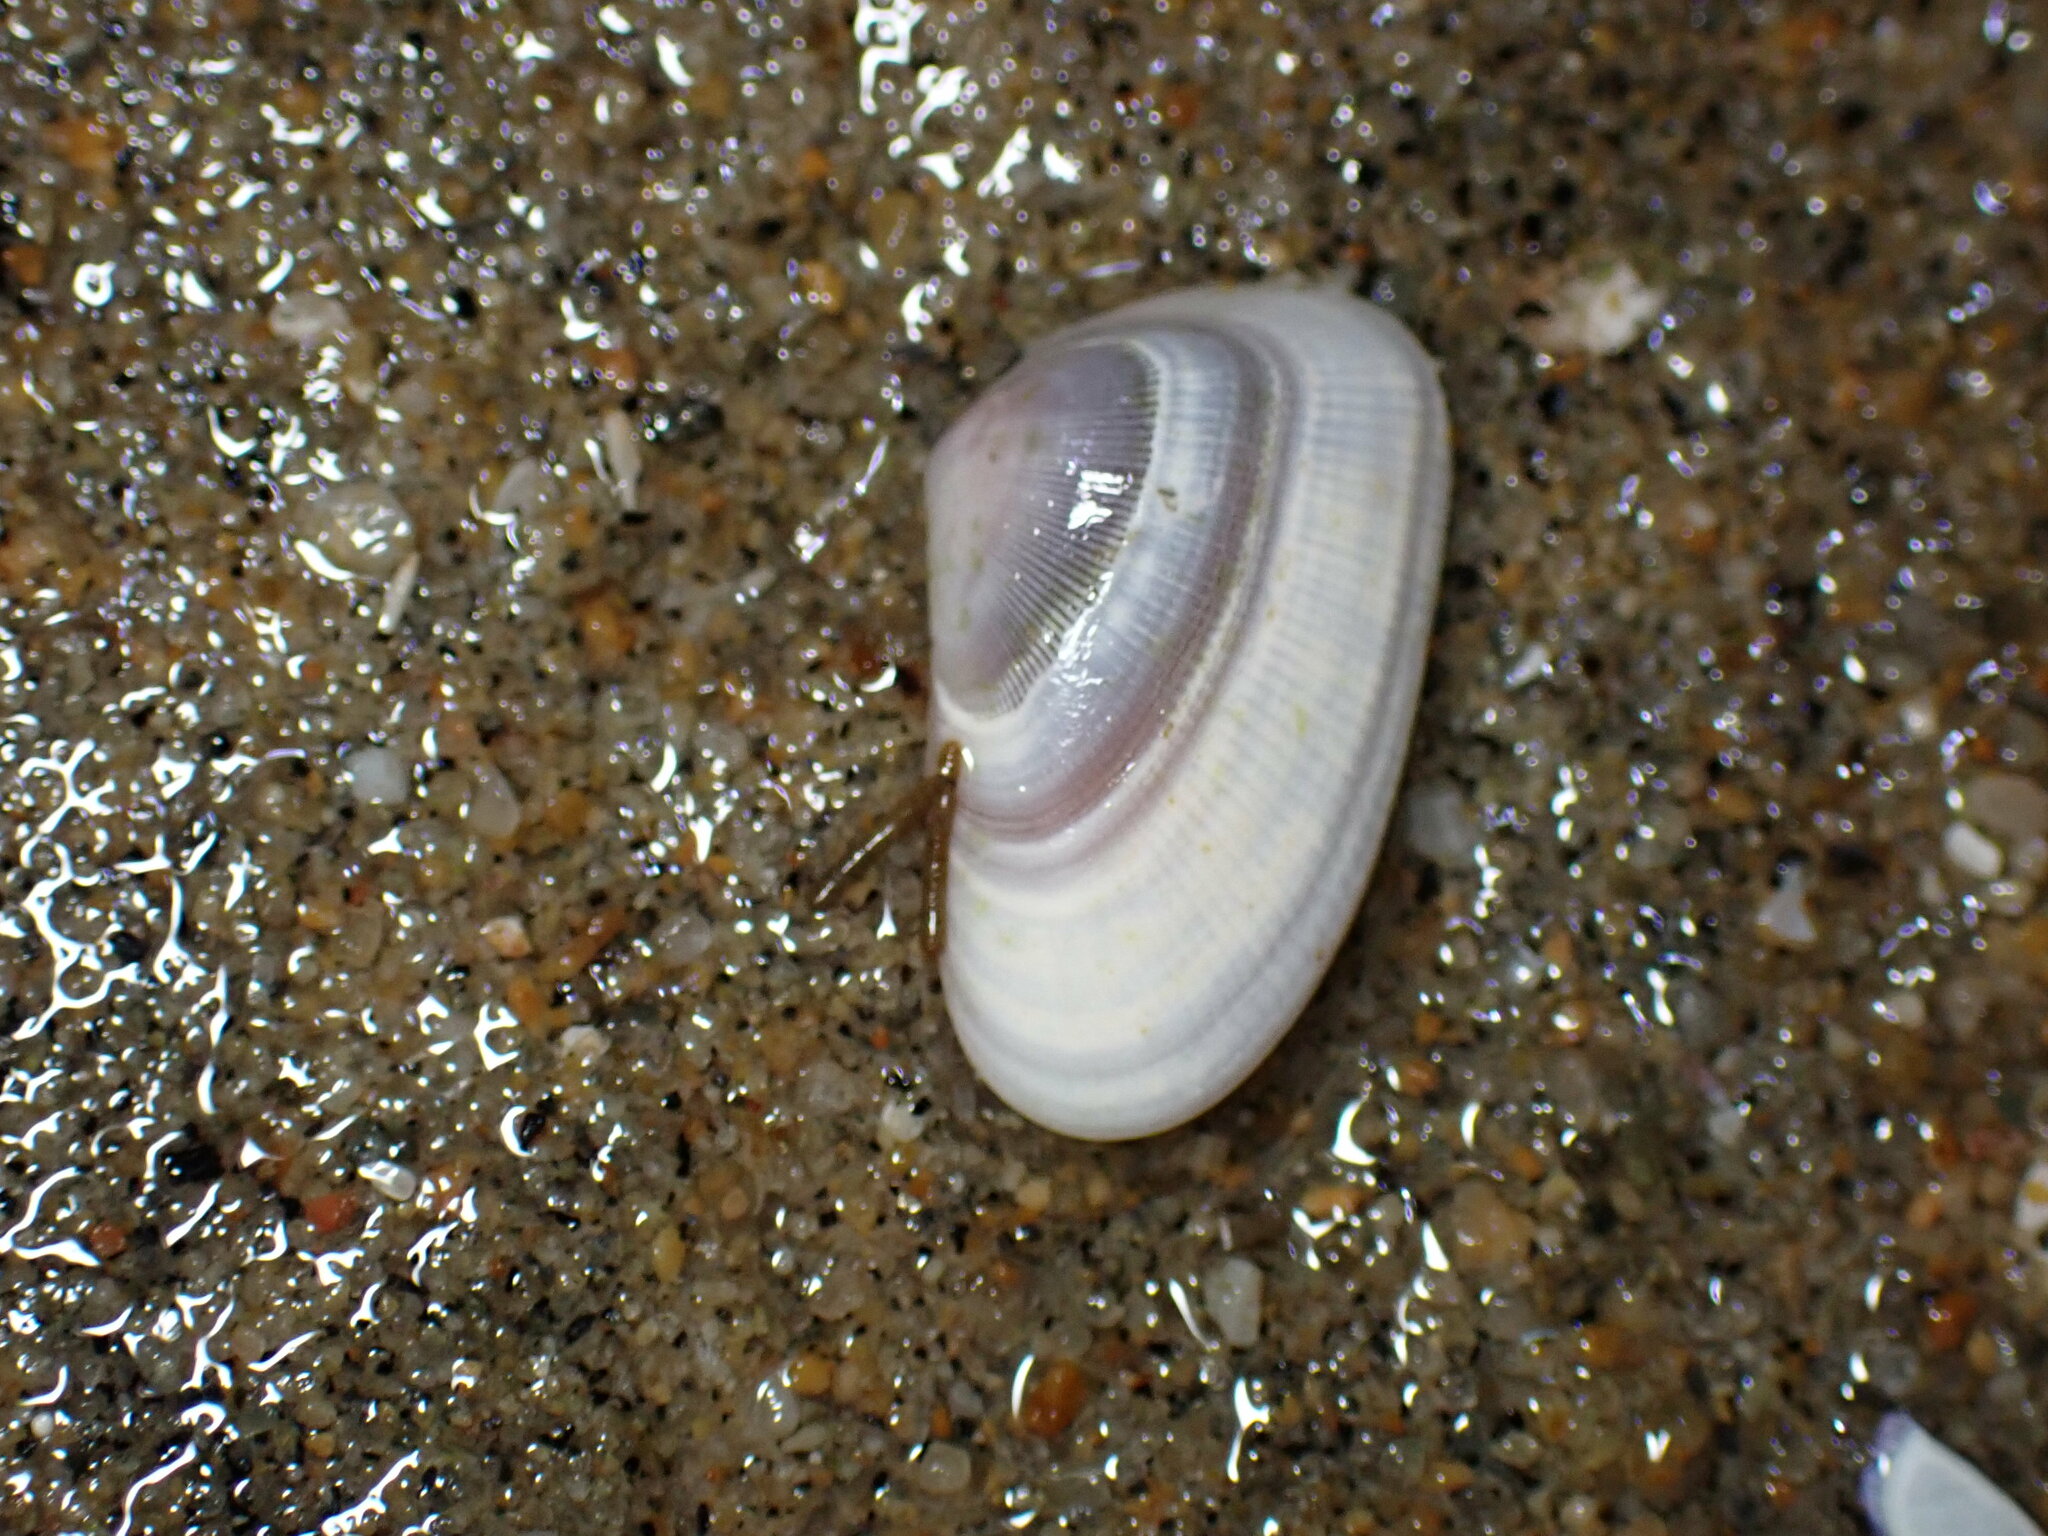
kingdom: Animalia
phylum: Mollusca
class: Bivalvia
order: Cardiida
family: Donacidae
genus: Donax
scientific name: Donax gouldii
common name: Gould beanclam
